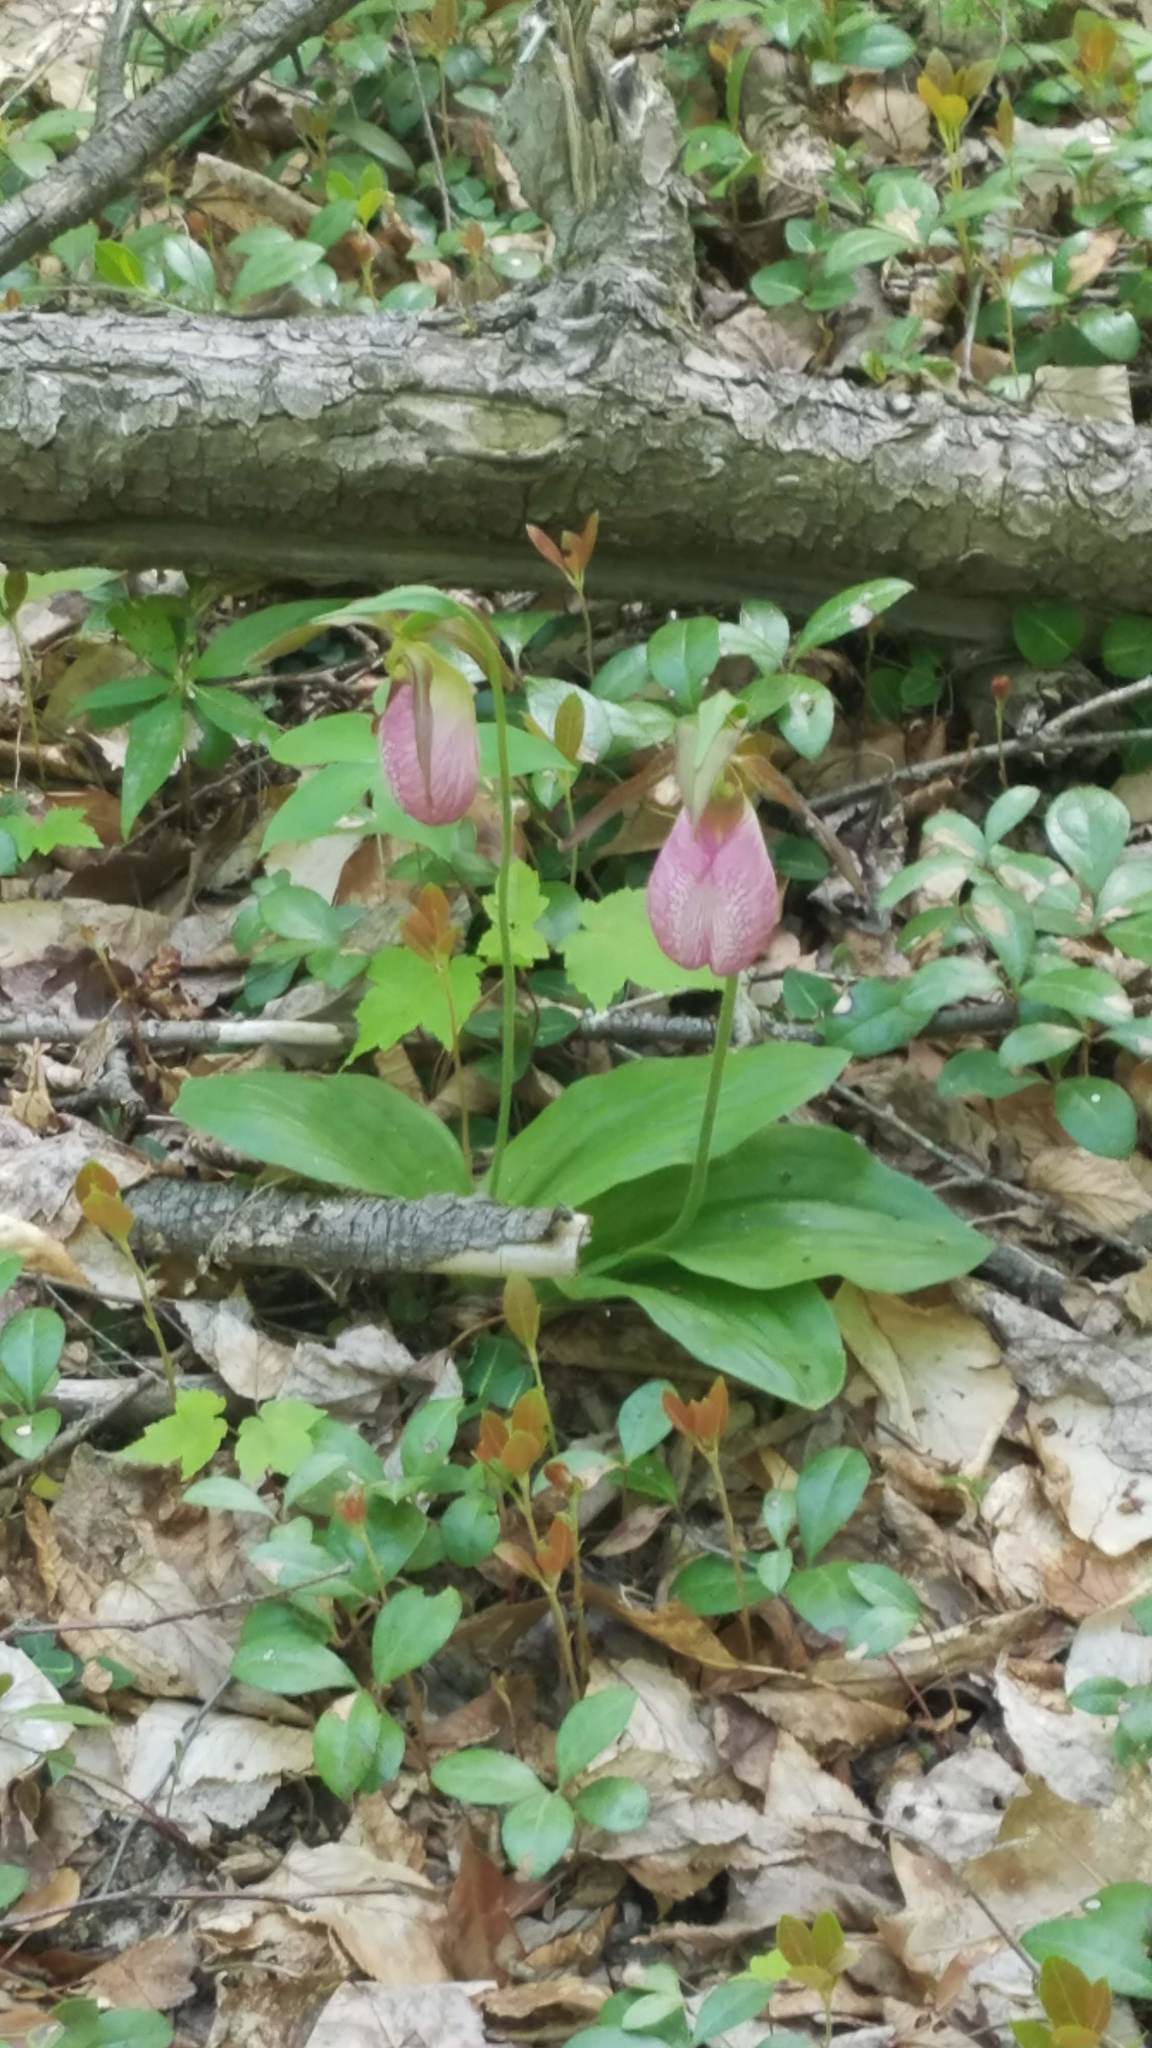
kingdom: Plantae
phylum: Tracheophyta
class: Liliopsida
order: Asparagales
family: Orchidaceae
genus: Cypripedium
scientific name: Cypripedium acaule
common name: Pink lady's-slipper
